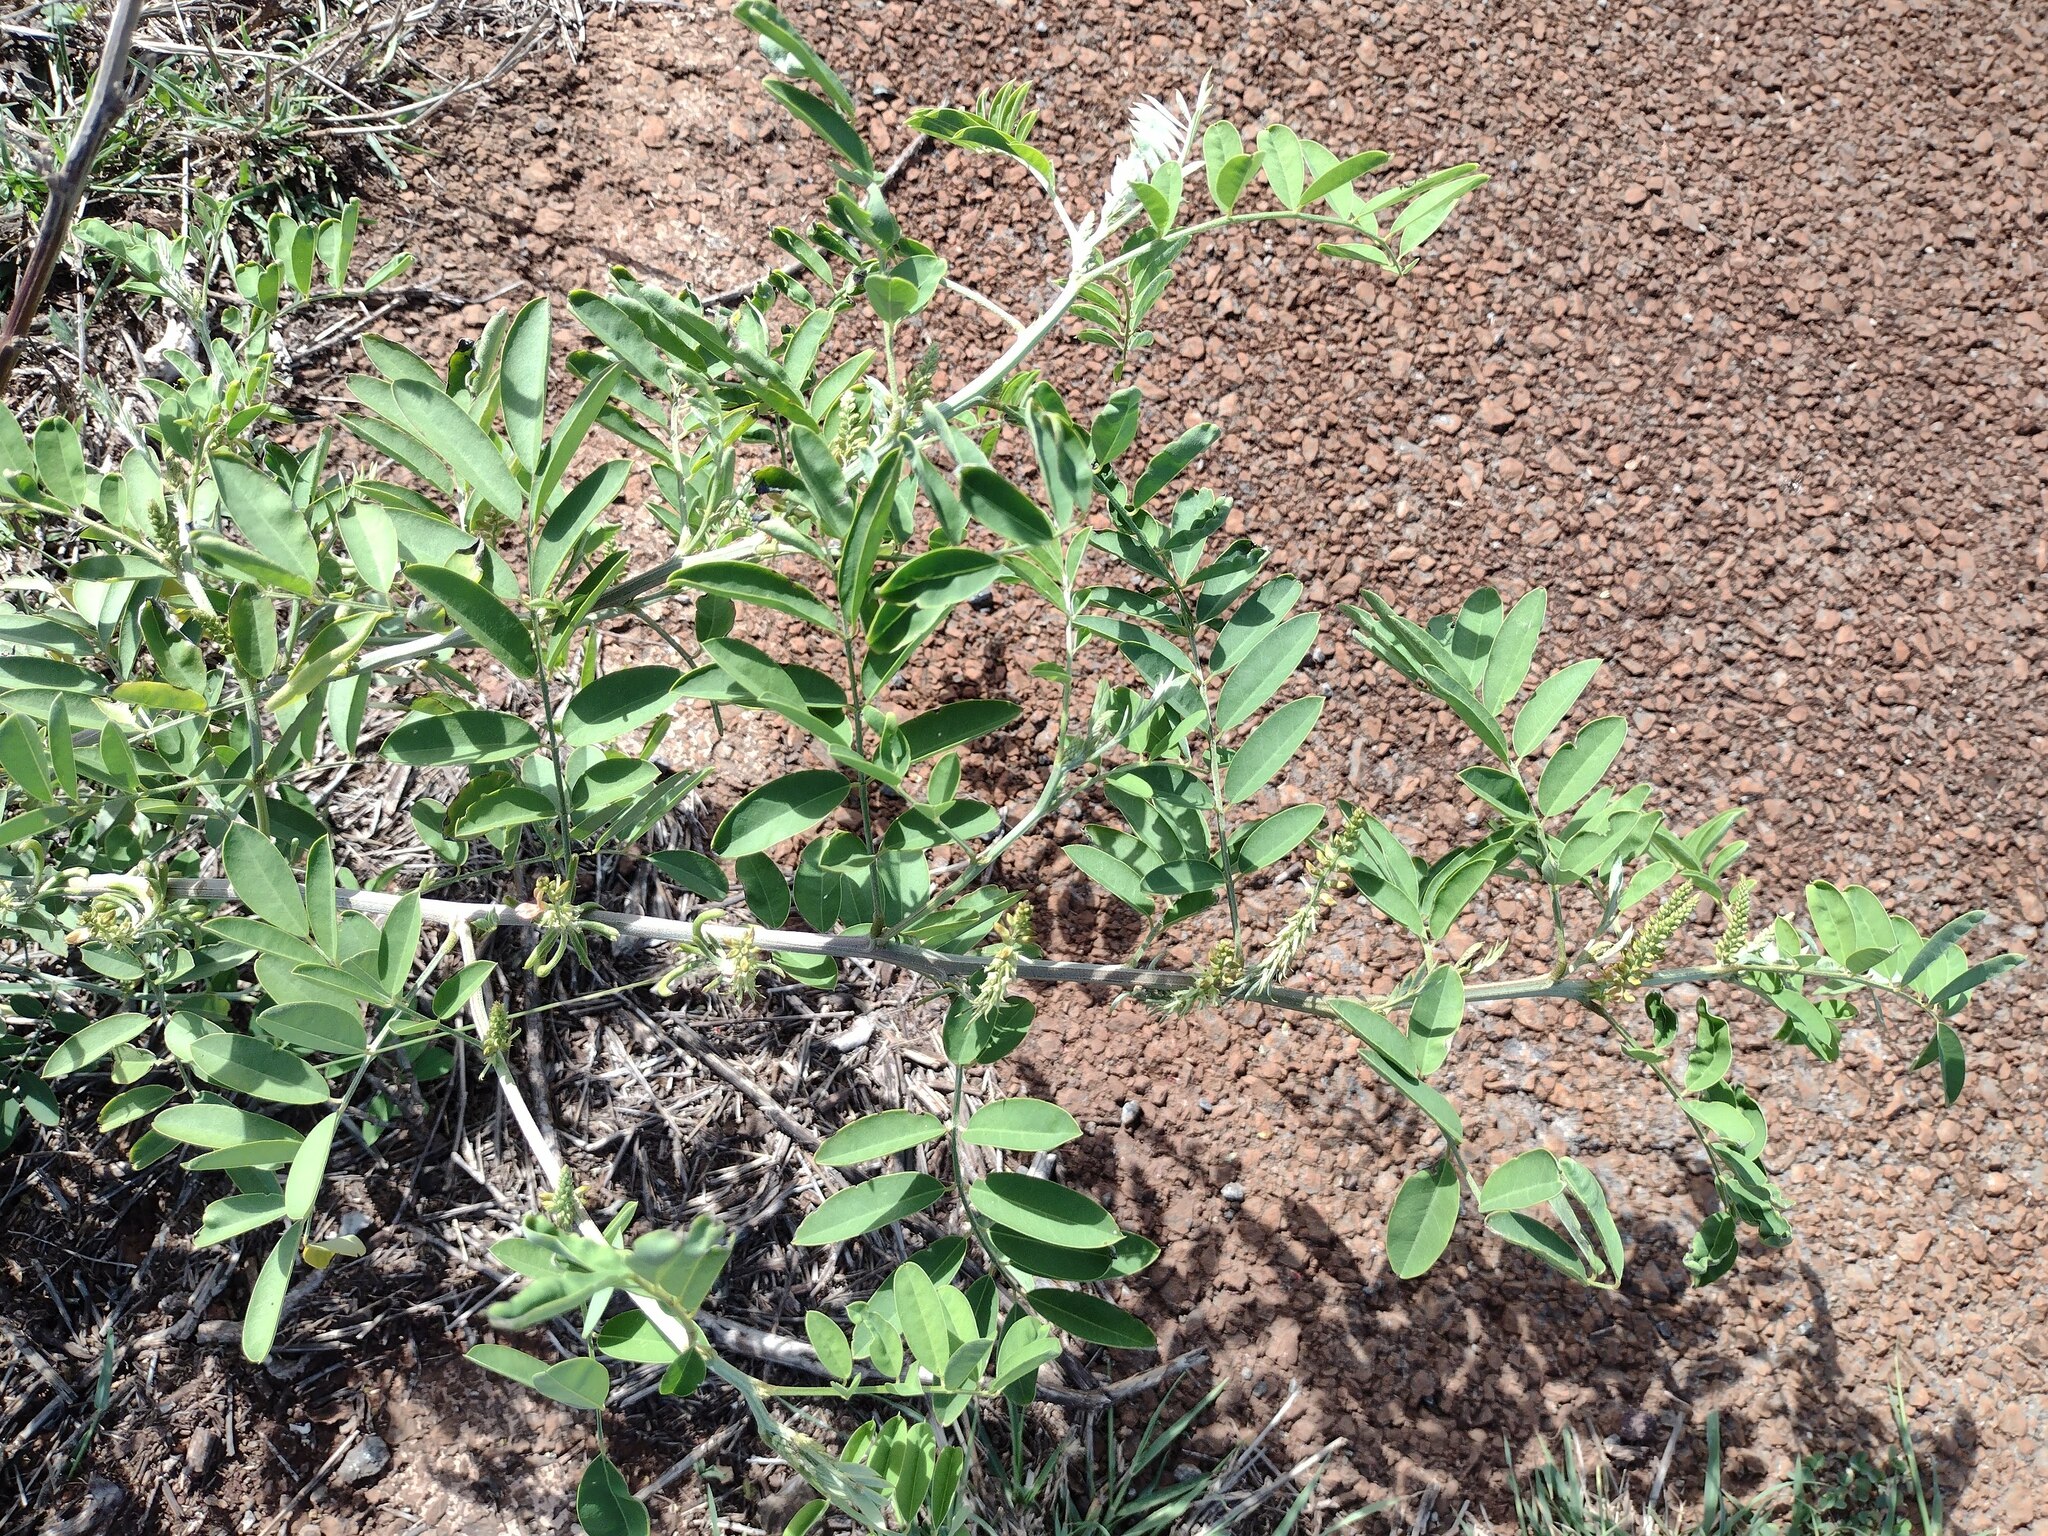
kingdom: Plantae
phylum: Tracheophyta
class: Magnoliopsida
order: Fabales
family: Fabaceae
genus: Indigofera
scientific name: Indigofera suffruticosa
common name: Anil de pasto
